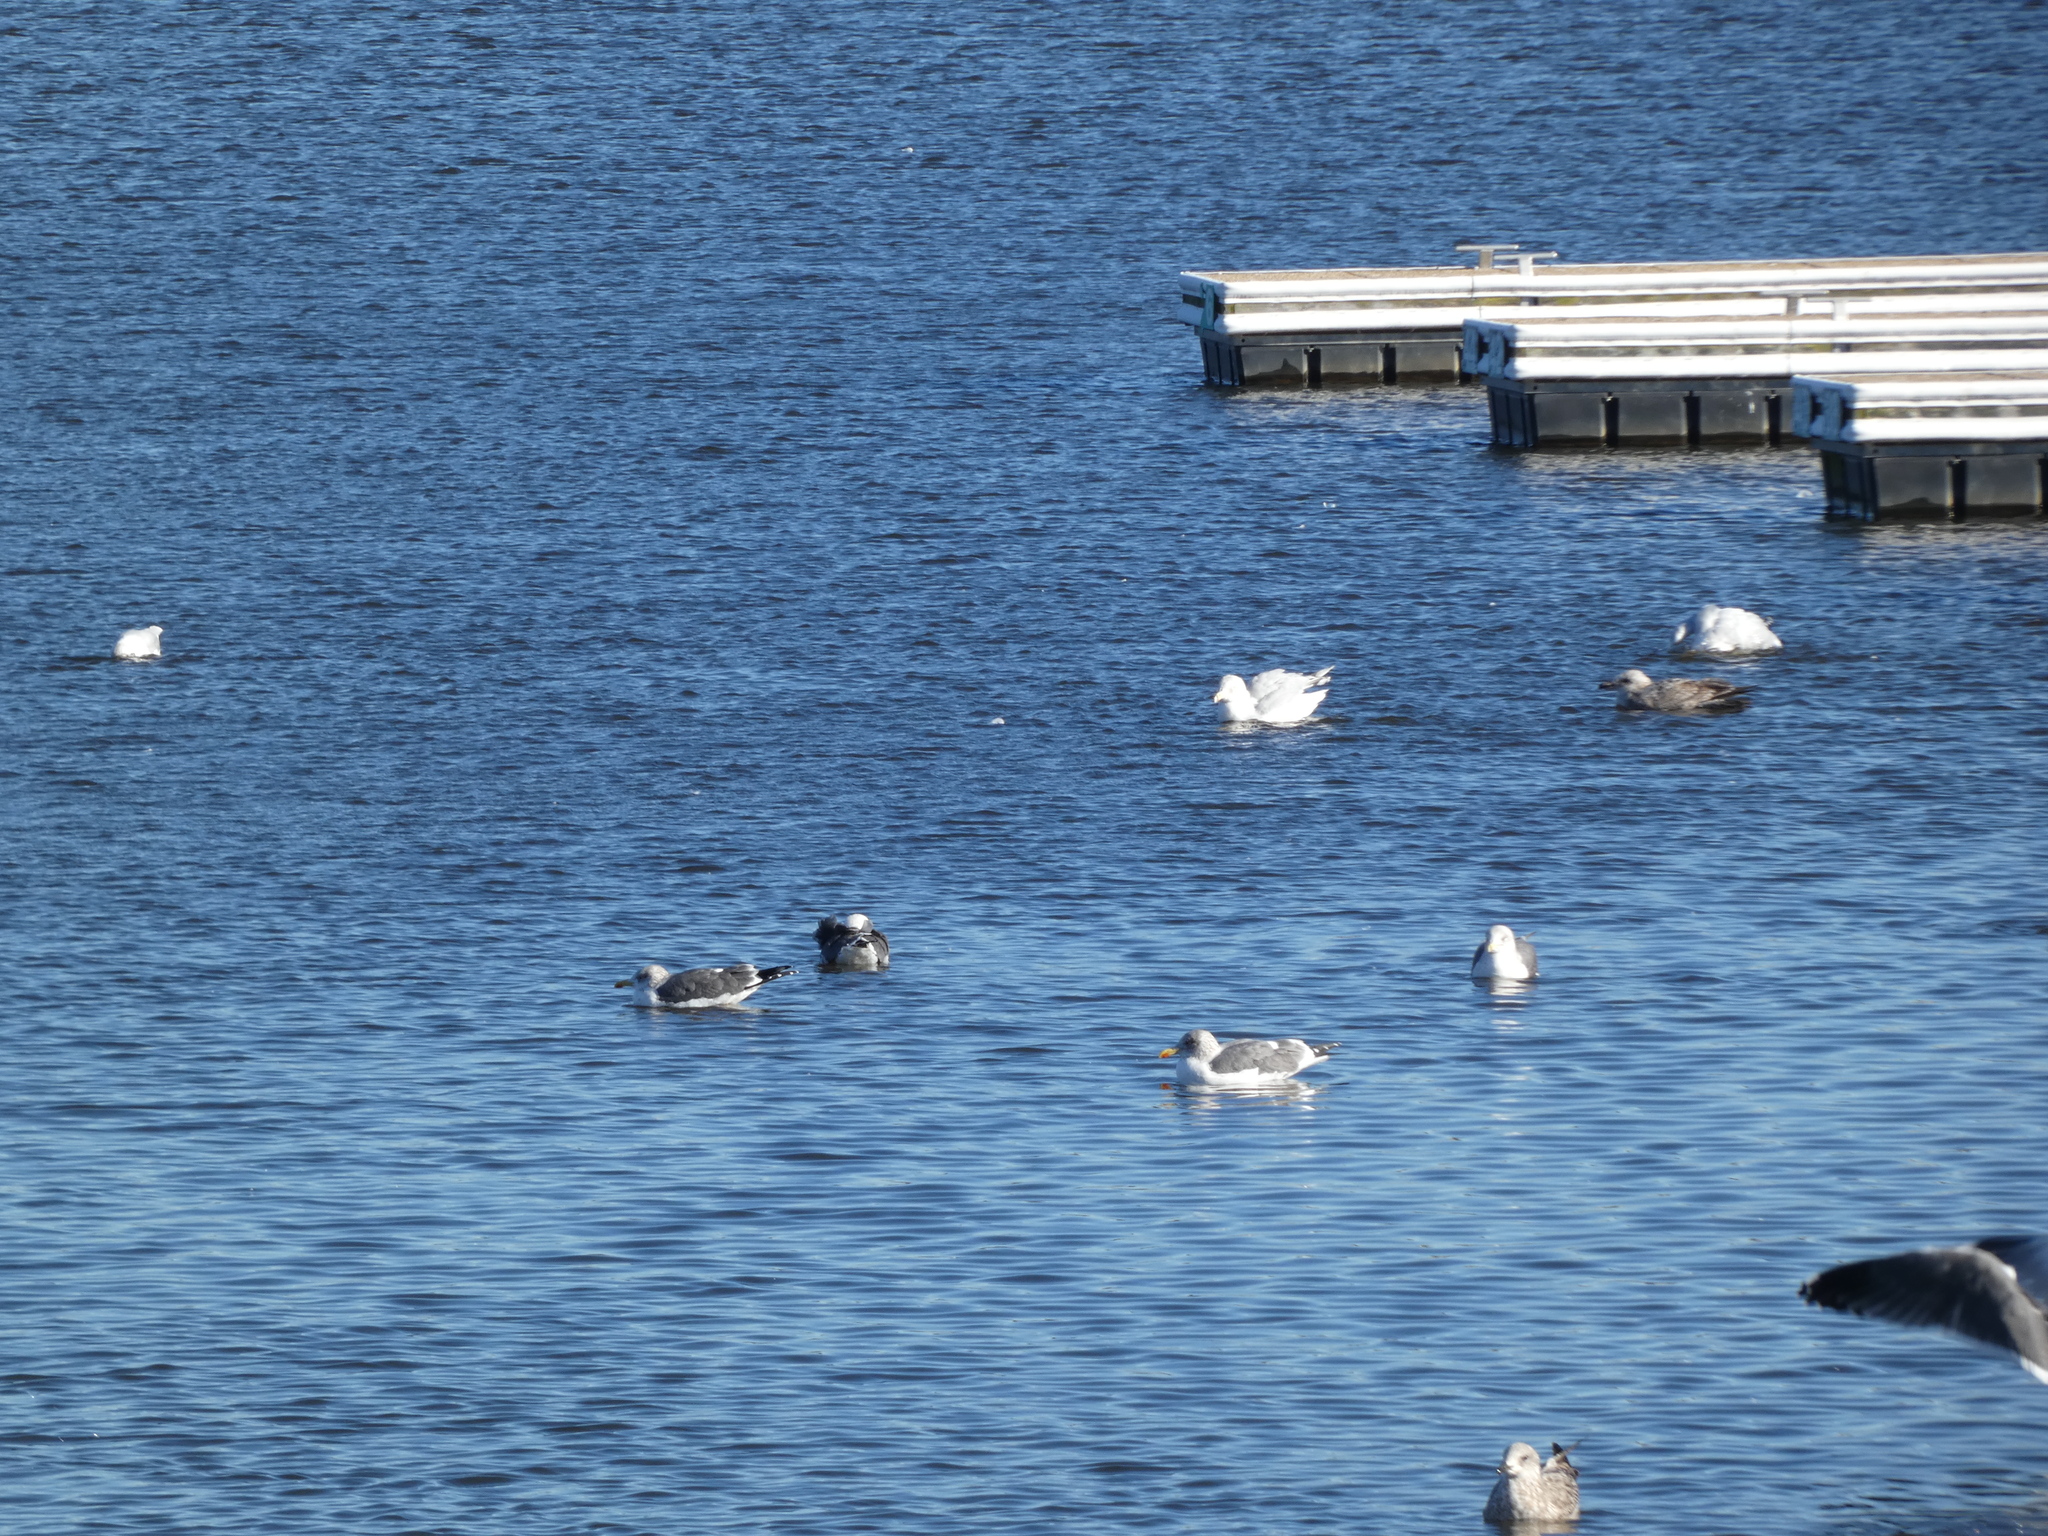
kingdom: Animalia
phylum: Chordata
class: Aves
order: Charadriiformes
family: Laridae
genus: Larus
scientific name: Larus delawarensis
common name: Ring-billed gull
